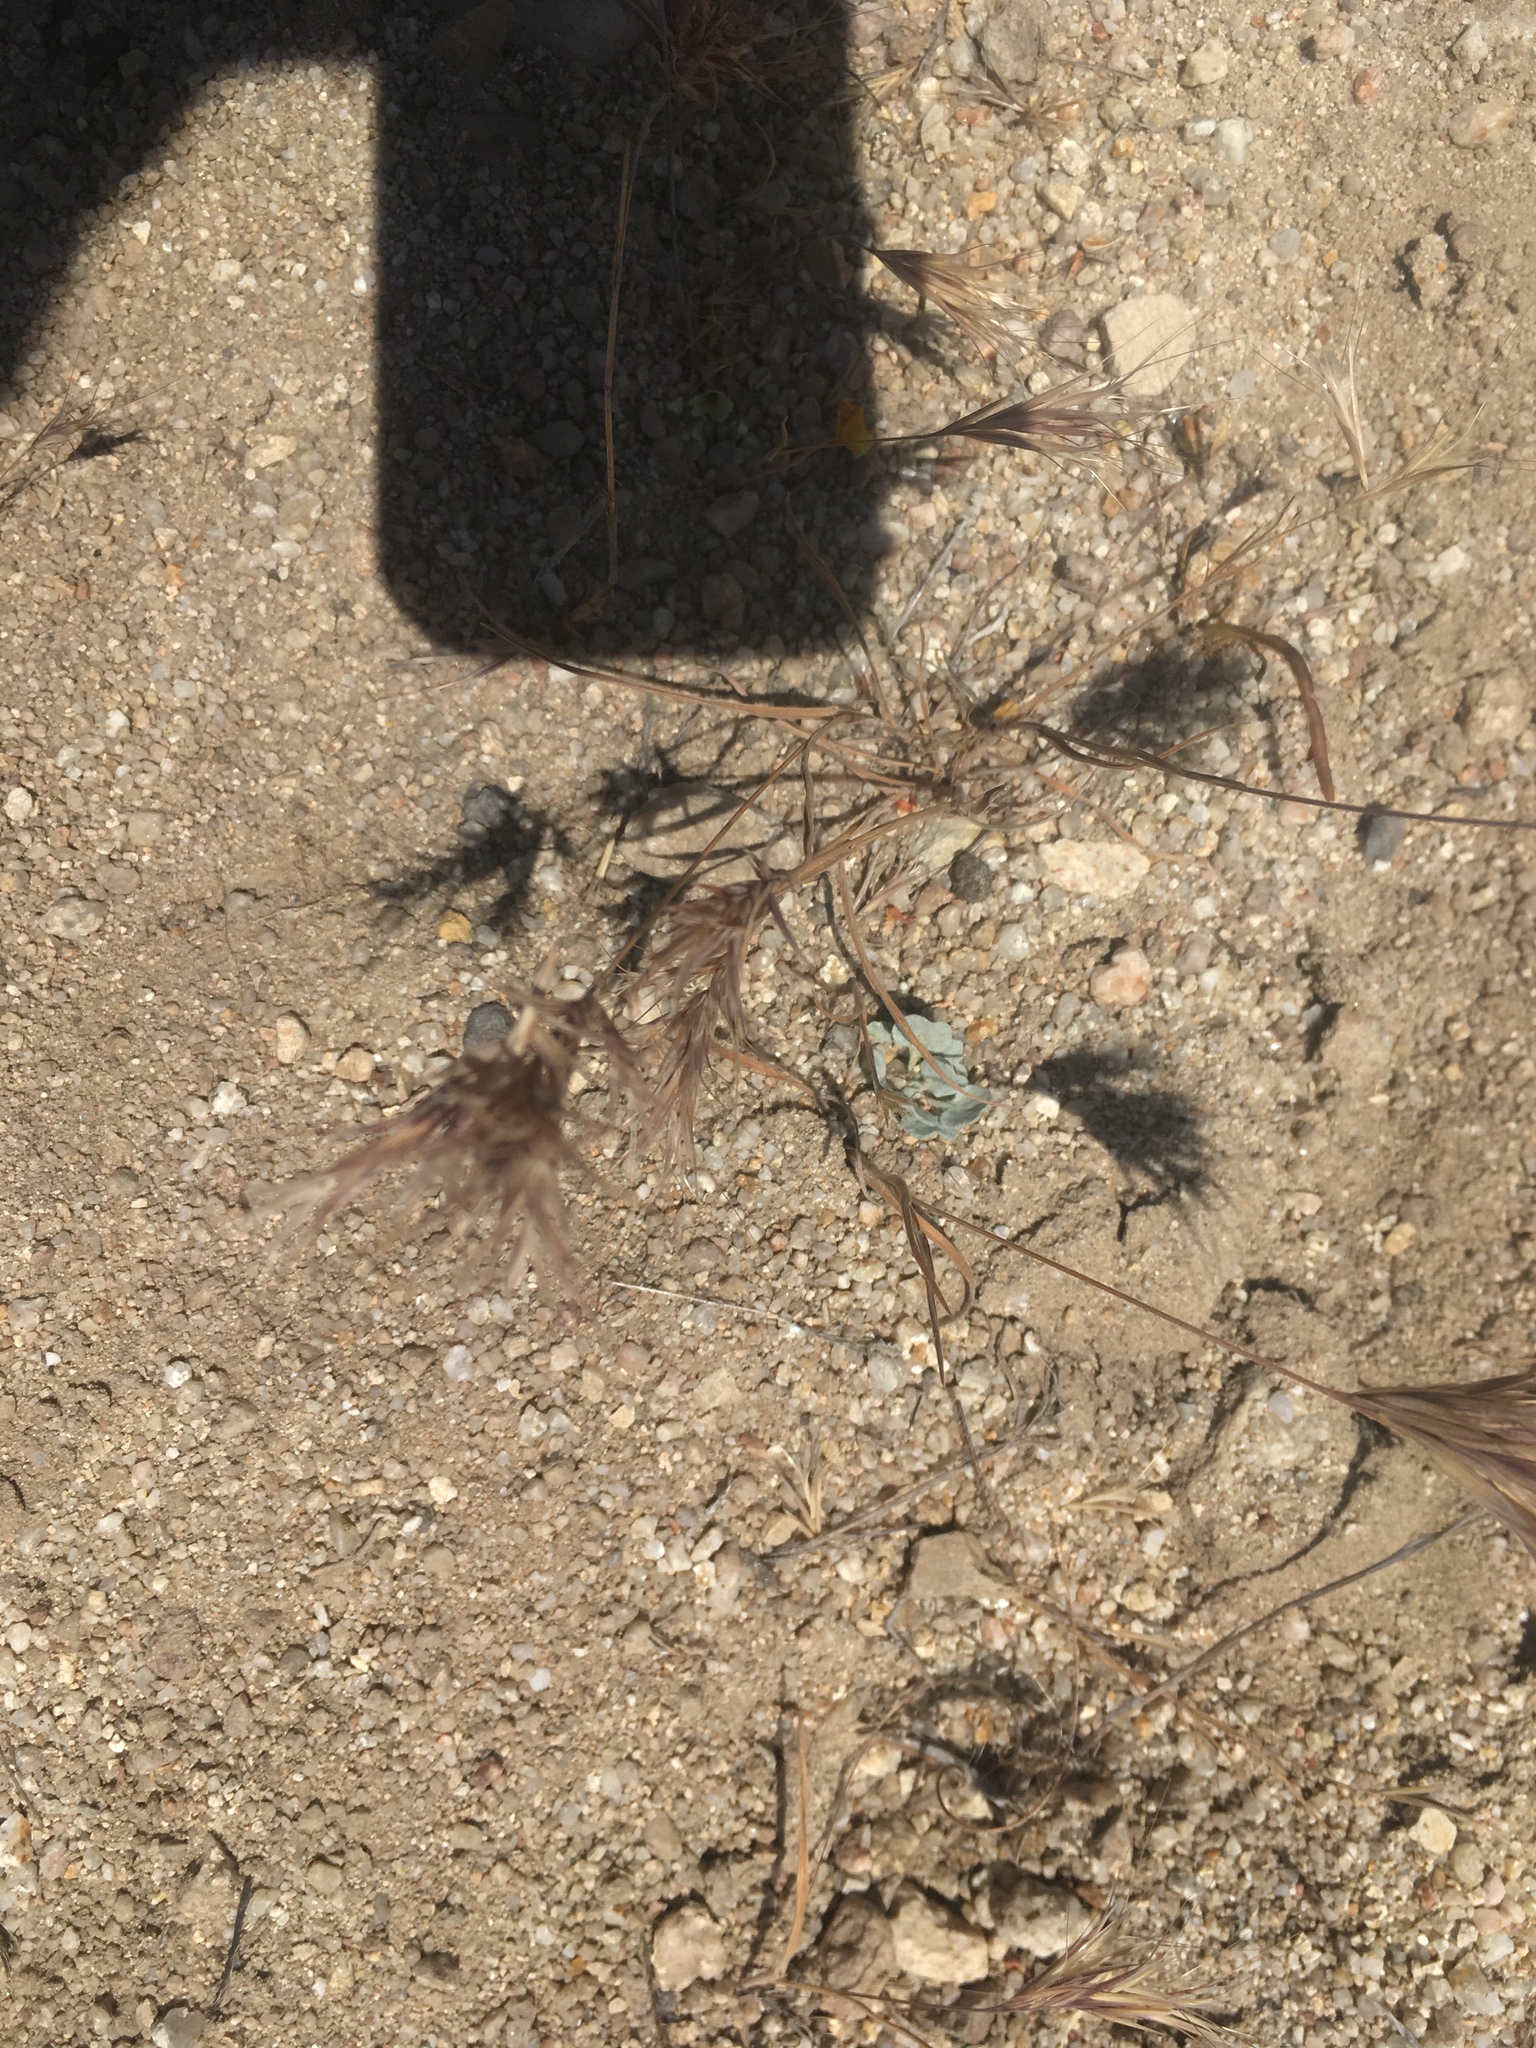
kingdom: Plantae
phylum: Tracheophyta
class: Magnoliopsida
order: Caryophyllales
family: Polygonaceae
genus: Eriogonum
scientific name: Eriogonum elegans
